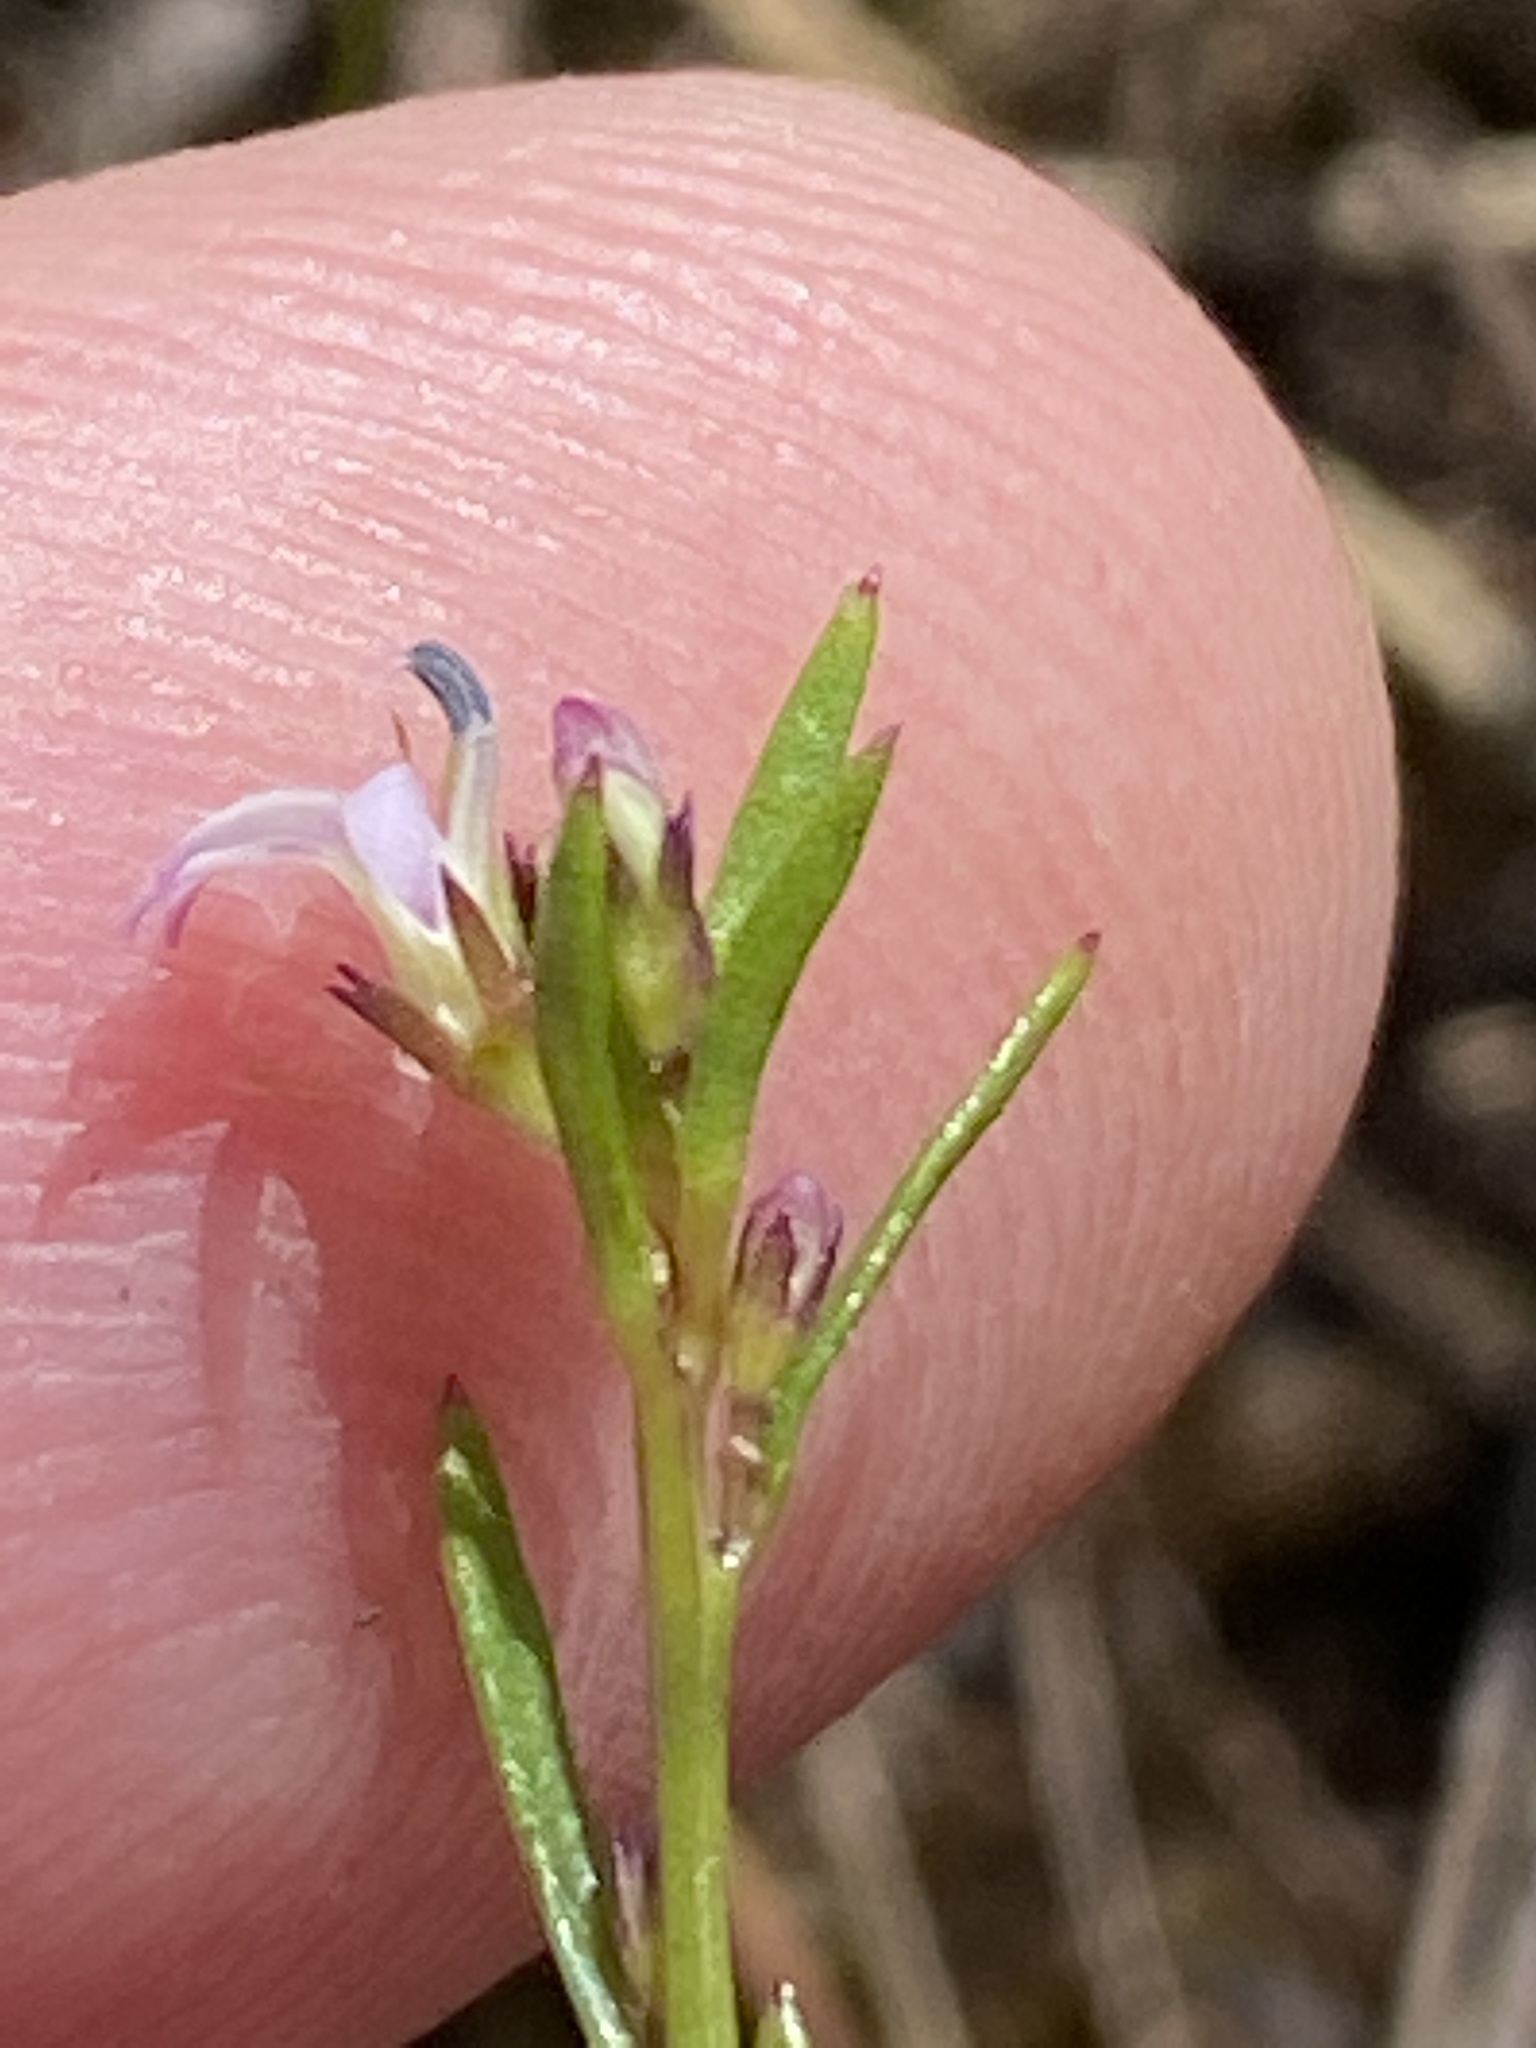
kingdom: Plantae
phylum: Tracheophyta
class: Magnoliopsida
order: Asterales
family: Campanulaceae
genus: Lobelia
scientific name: Lobelia jasionoides
